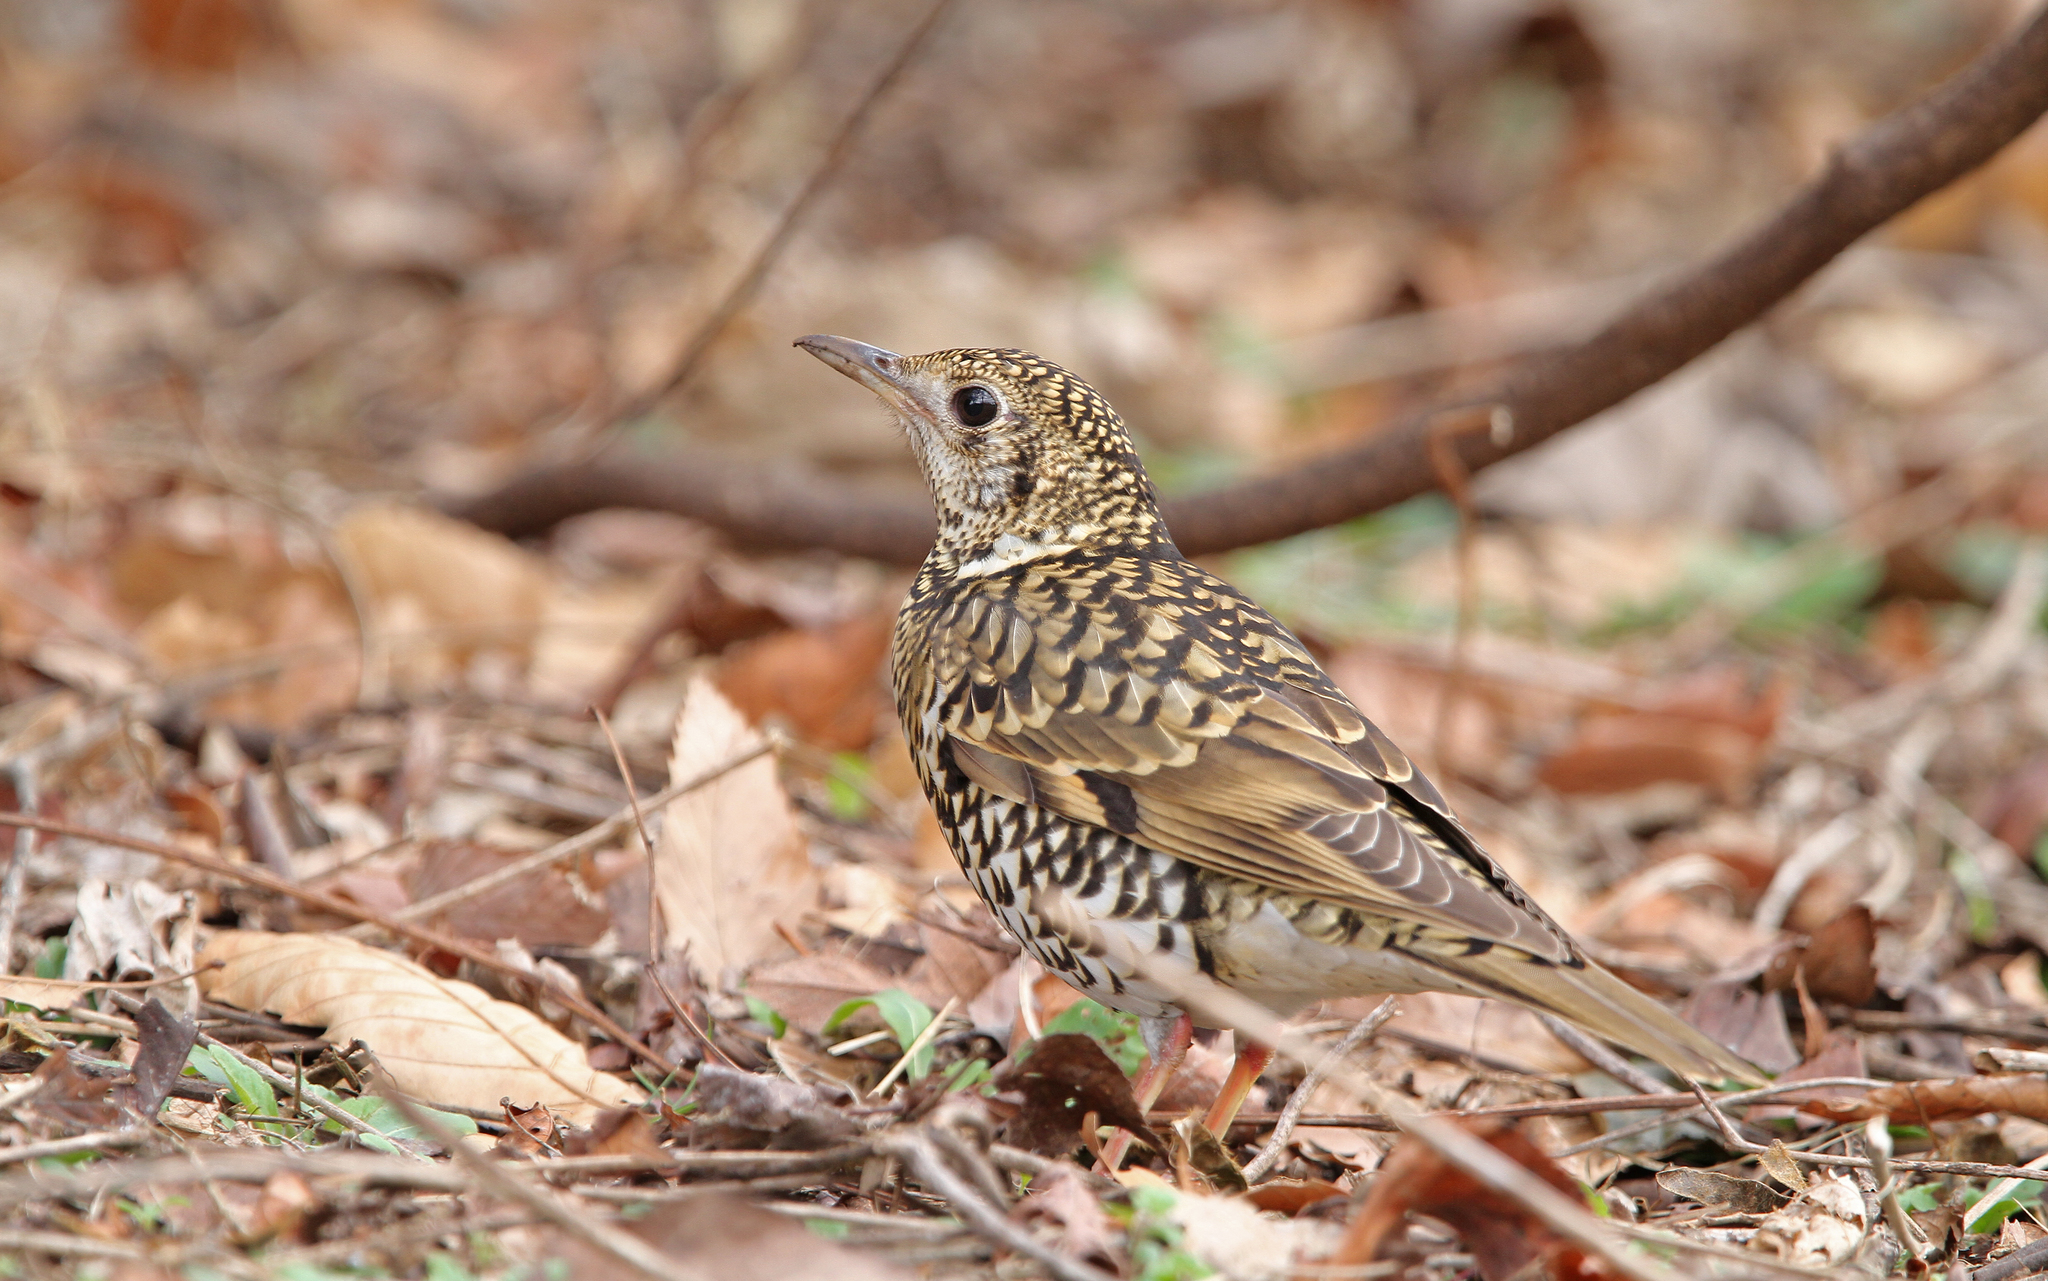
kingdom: Animalia
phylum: Chordata
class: Aves
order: Passeriformes
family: Turdidae
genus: Zoothera
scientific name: Zoothera aurea
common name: White's thrush
